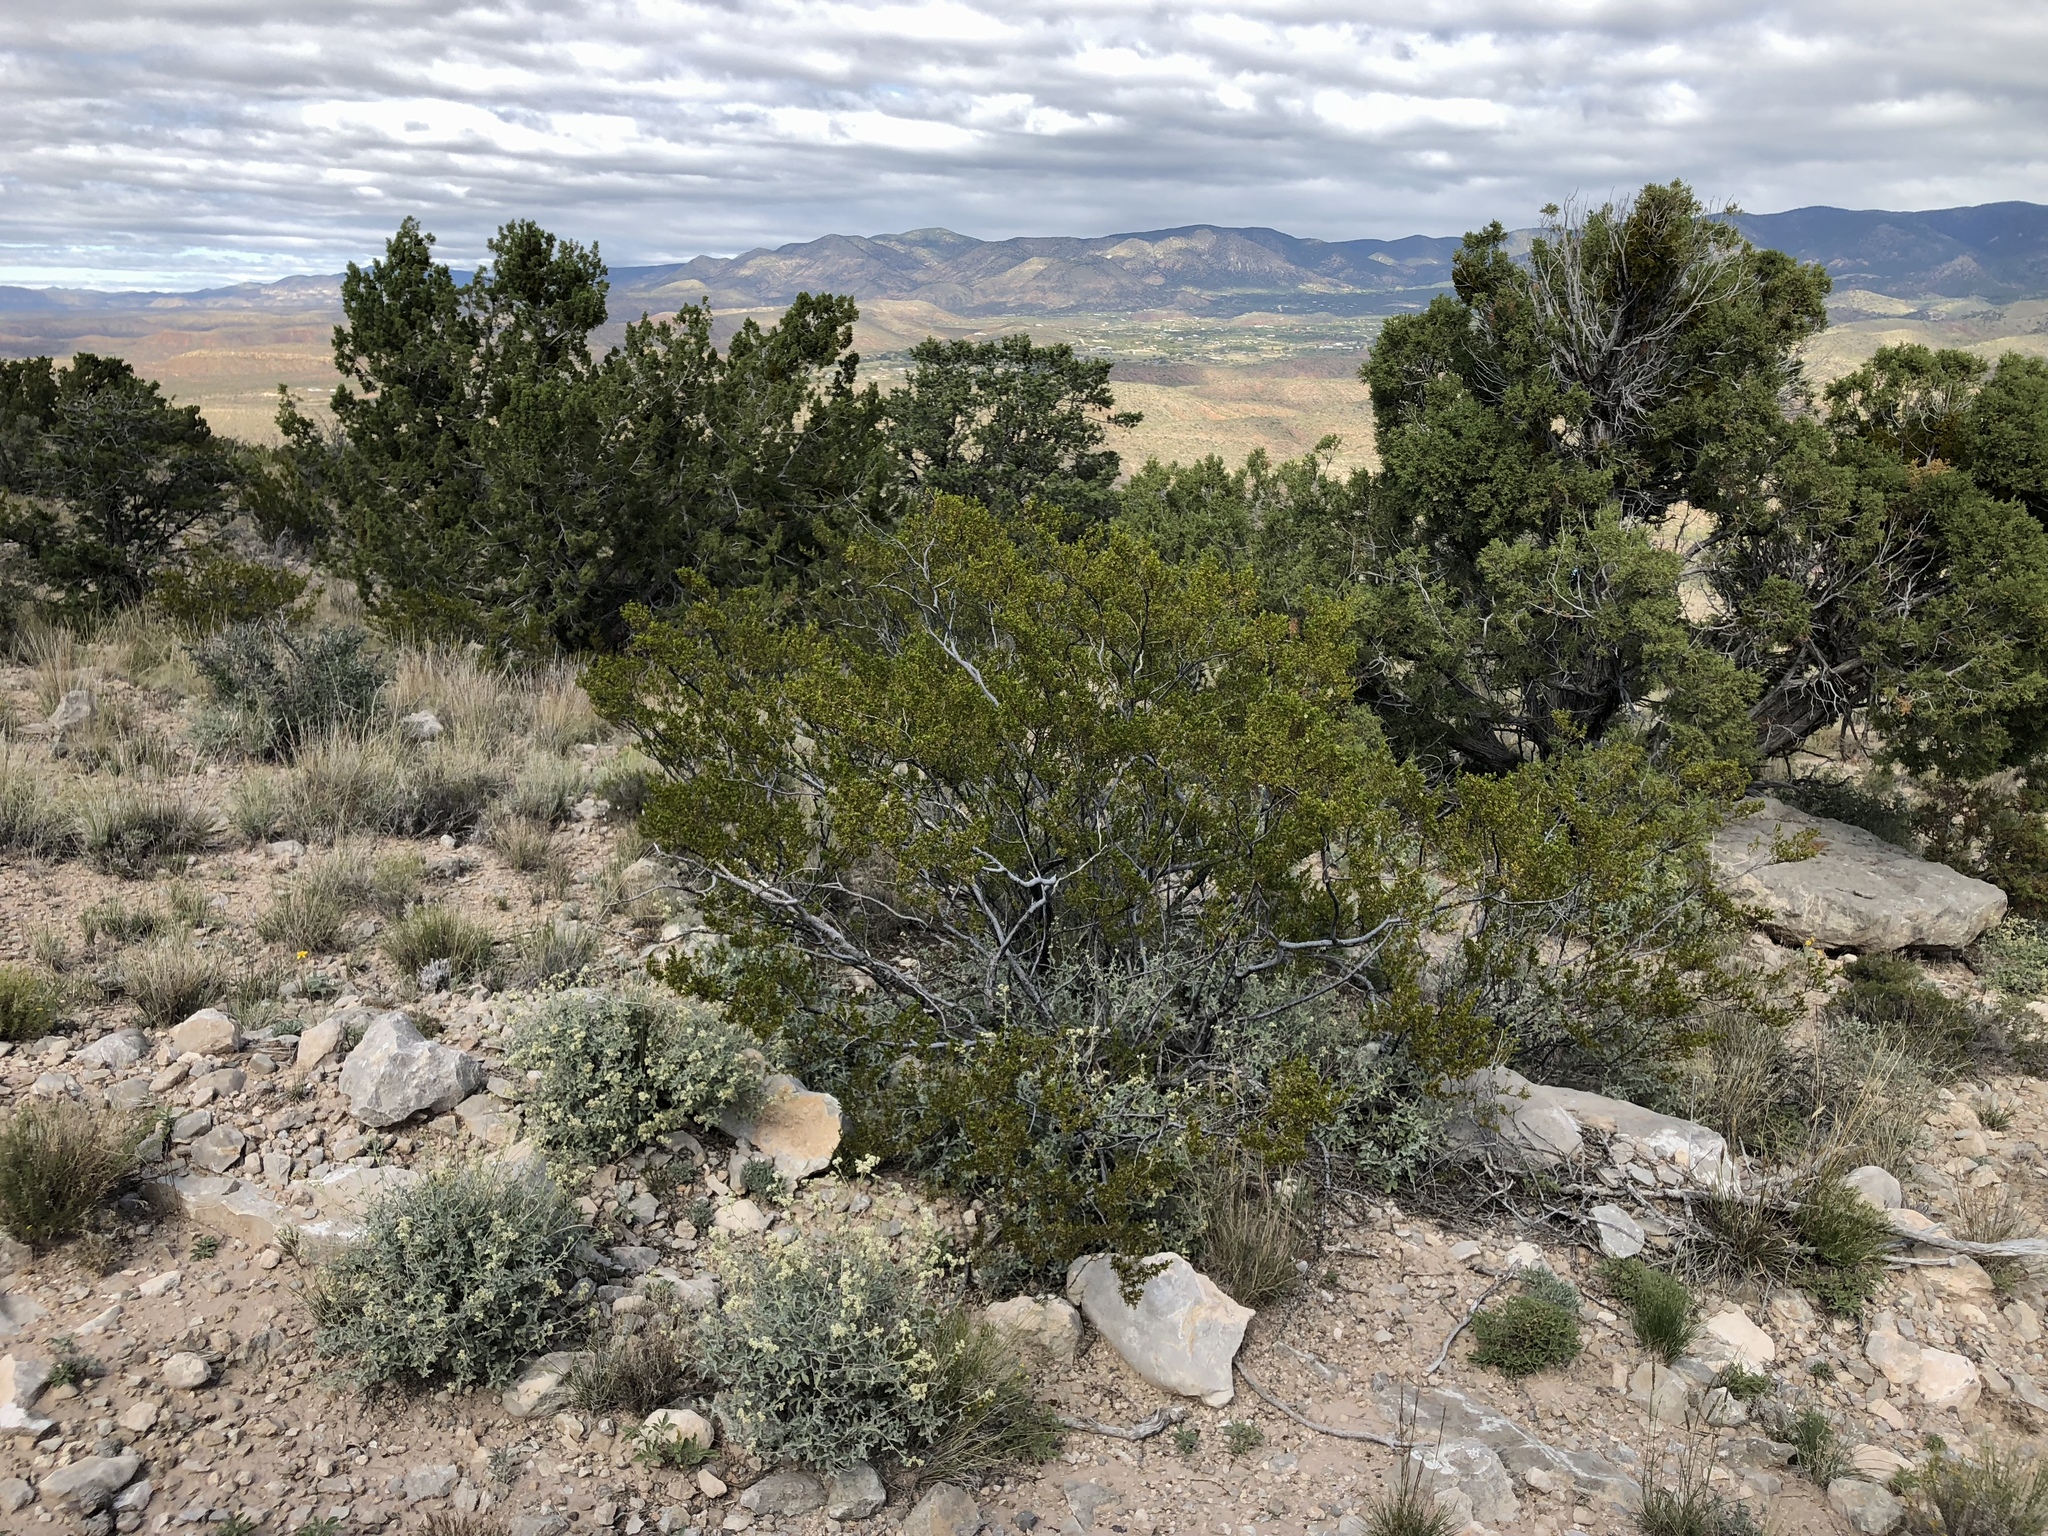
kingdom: Plantae
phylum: Tracheophyta
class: Magnoliopsida
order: Zygophyllales
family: Zygophyllaceae
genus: Larrea
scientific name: Larrea tridentata
